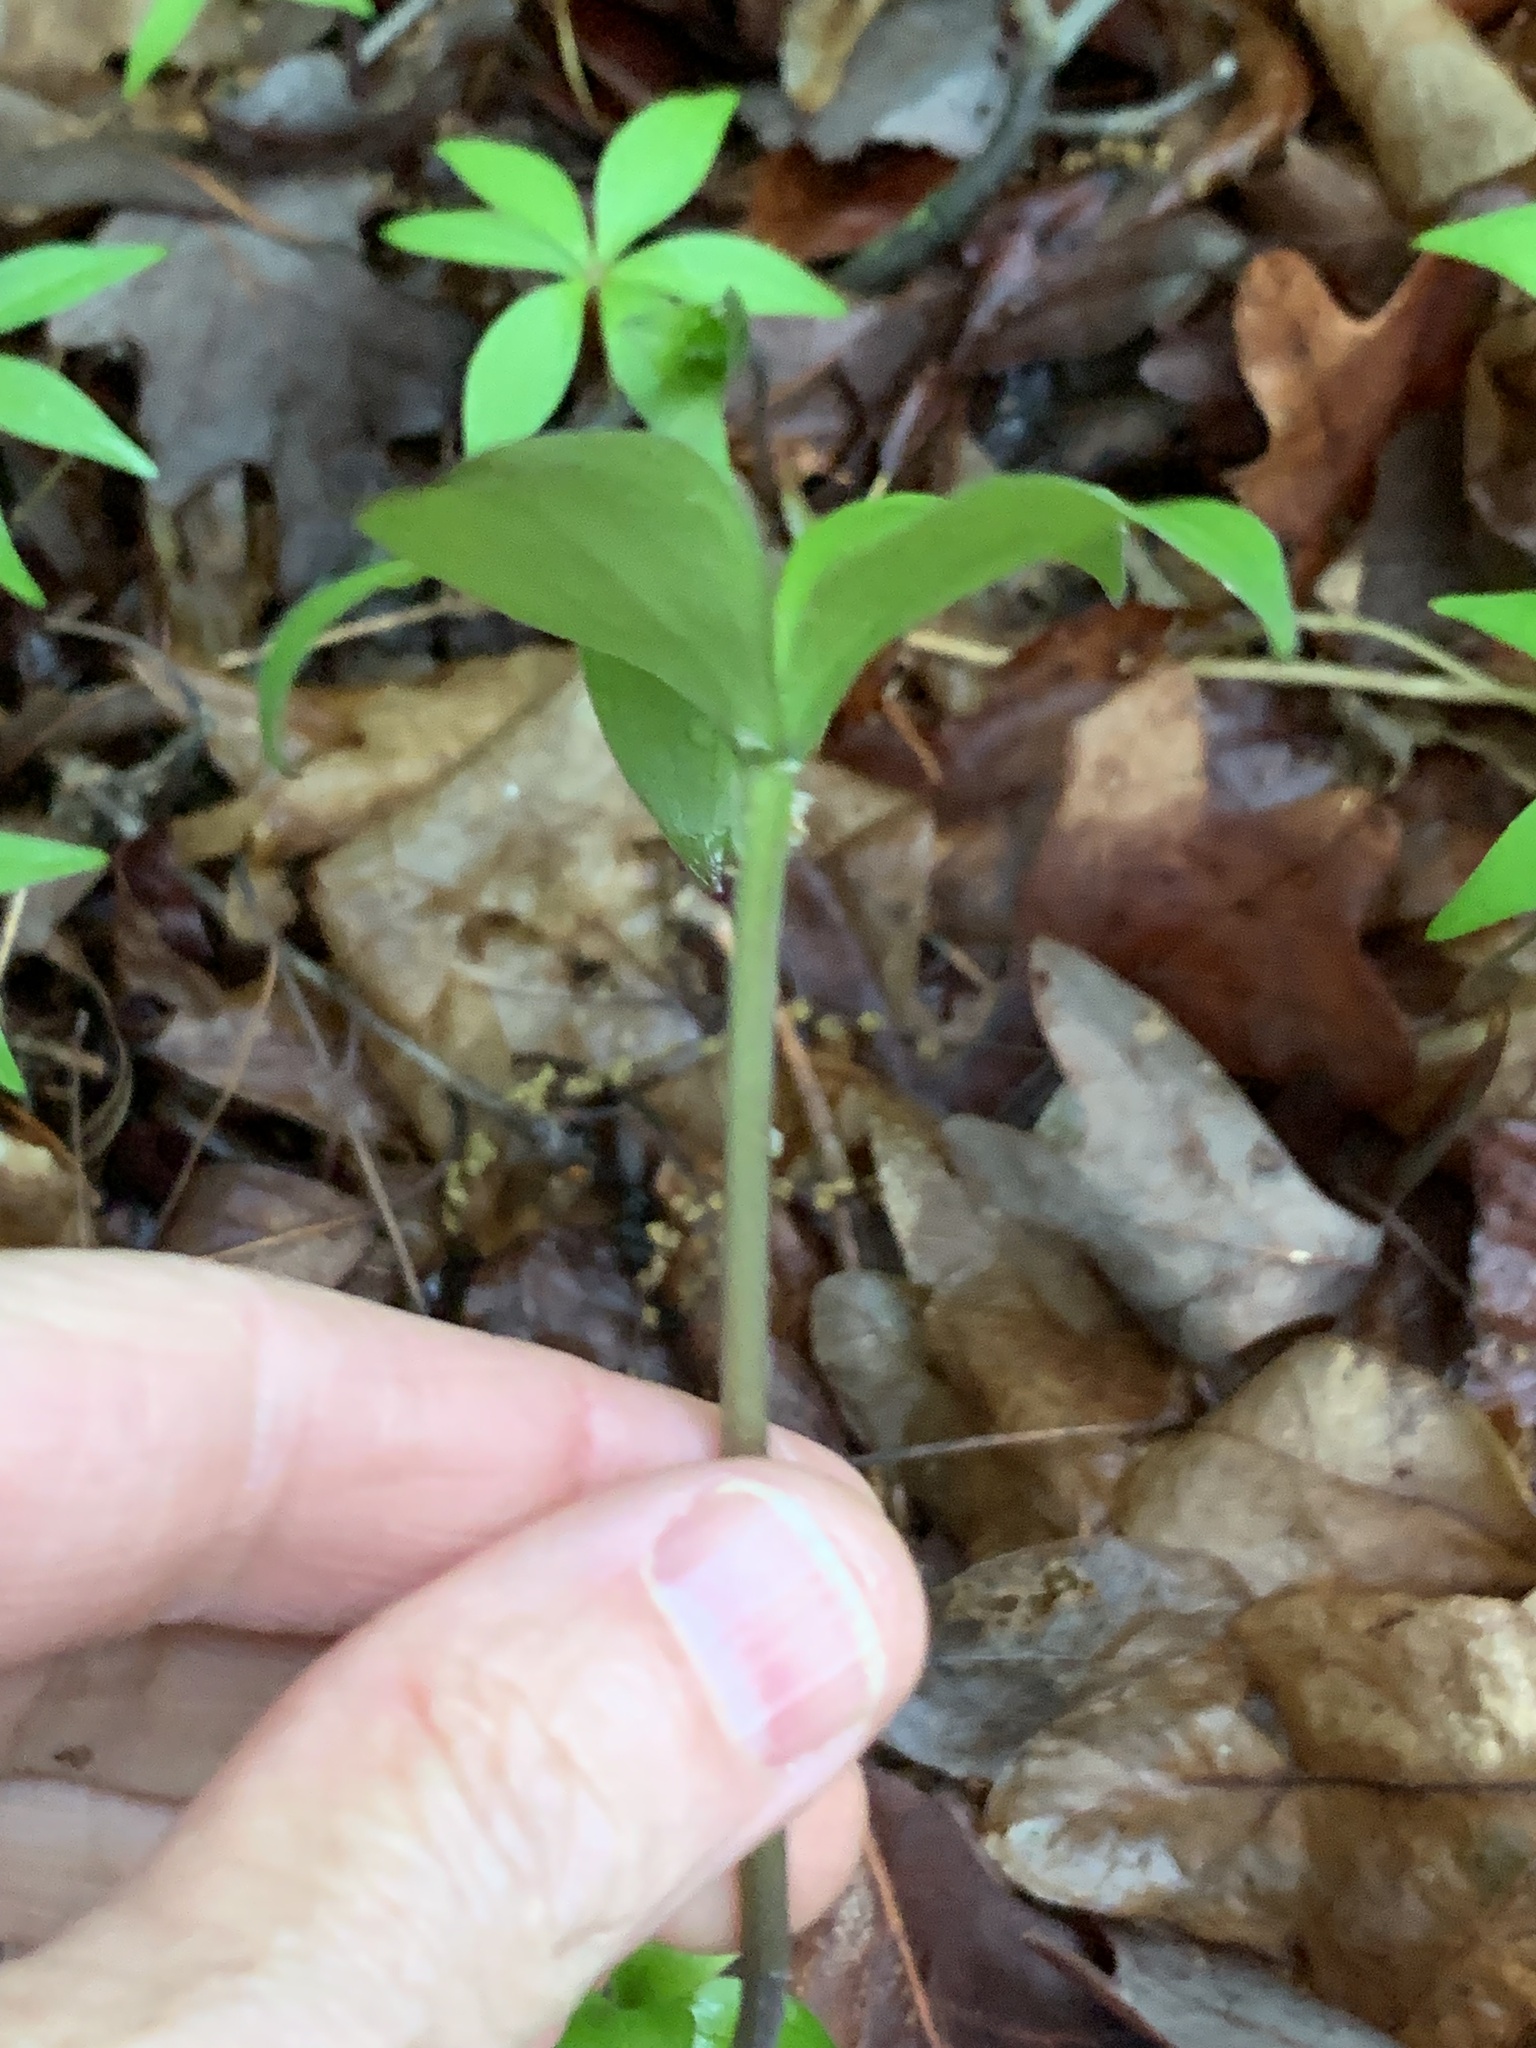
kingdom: Plantae
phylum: Tracheophyta
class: Liliopsida
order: Asparagales
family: Orchidaceae
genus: Isotria
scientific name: Isotria verticillata
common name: Large whorled pogonia
